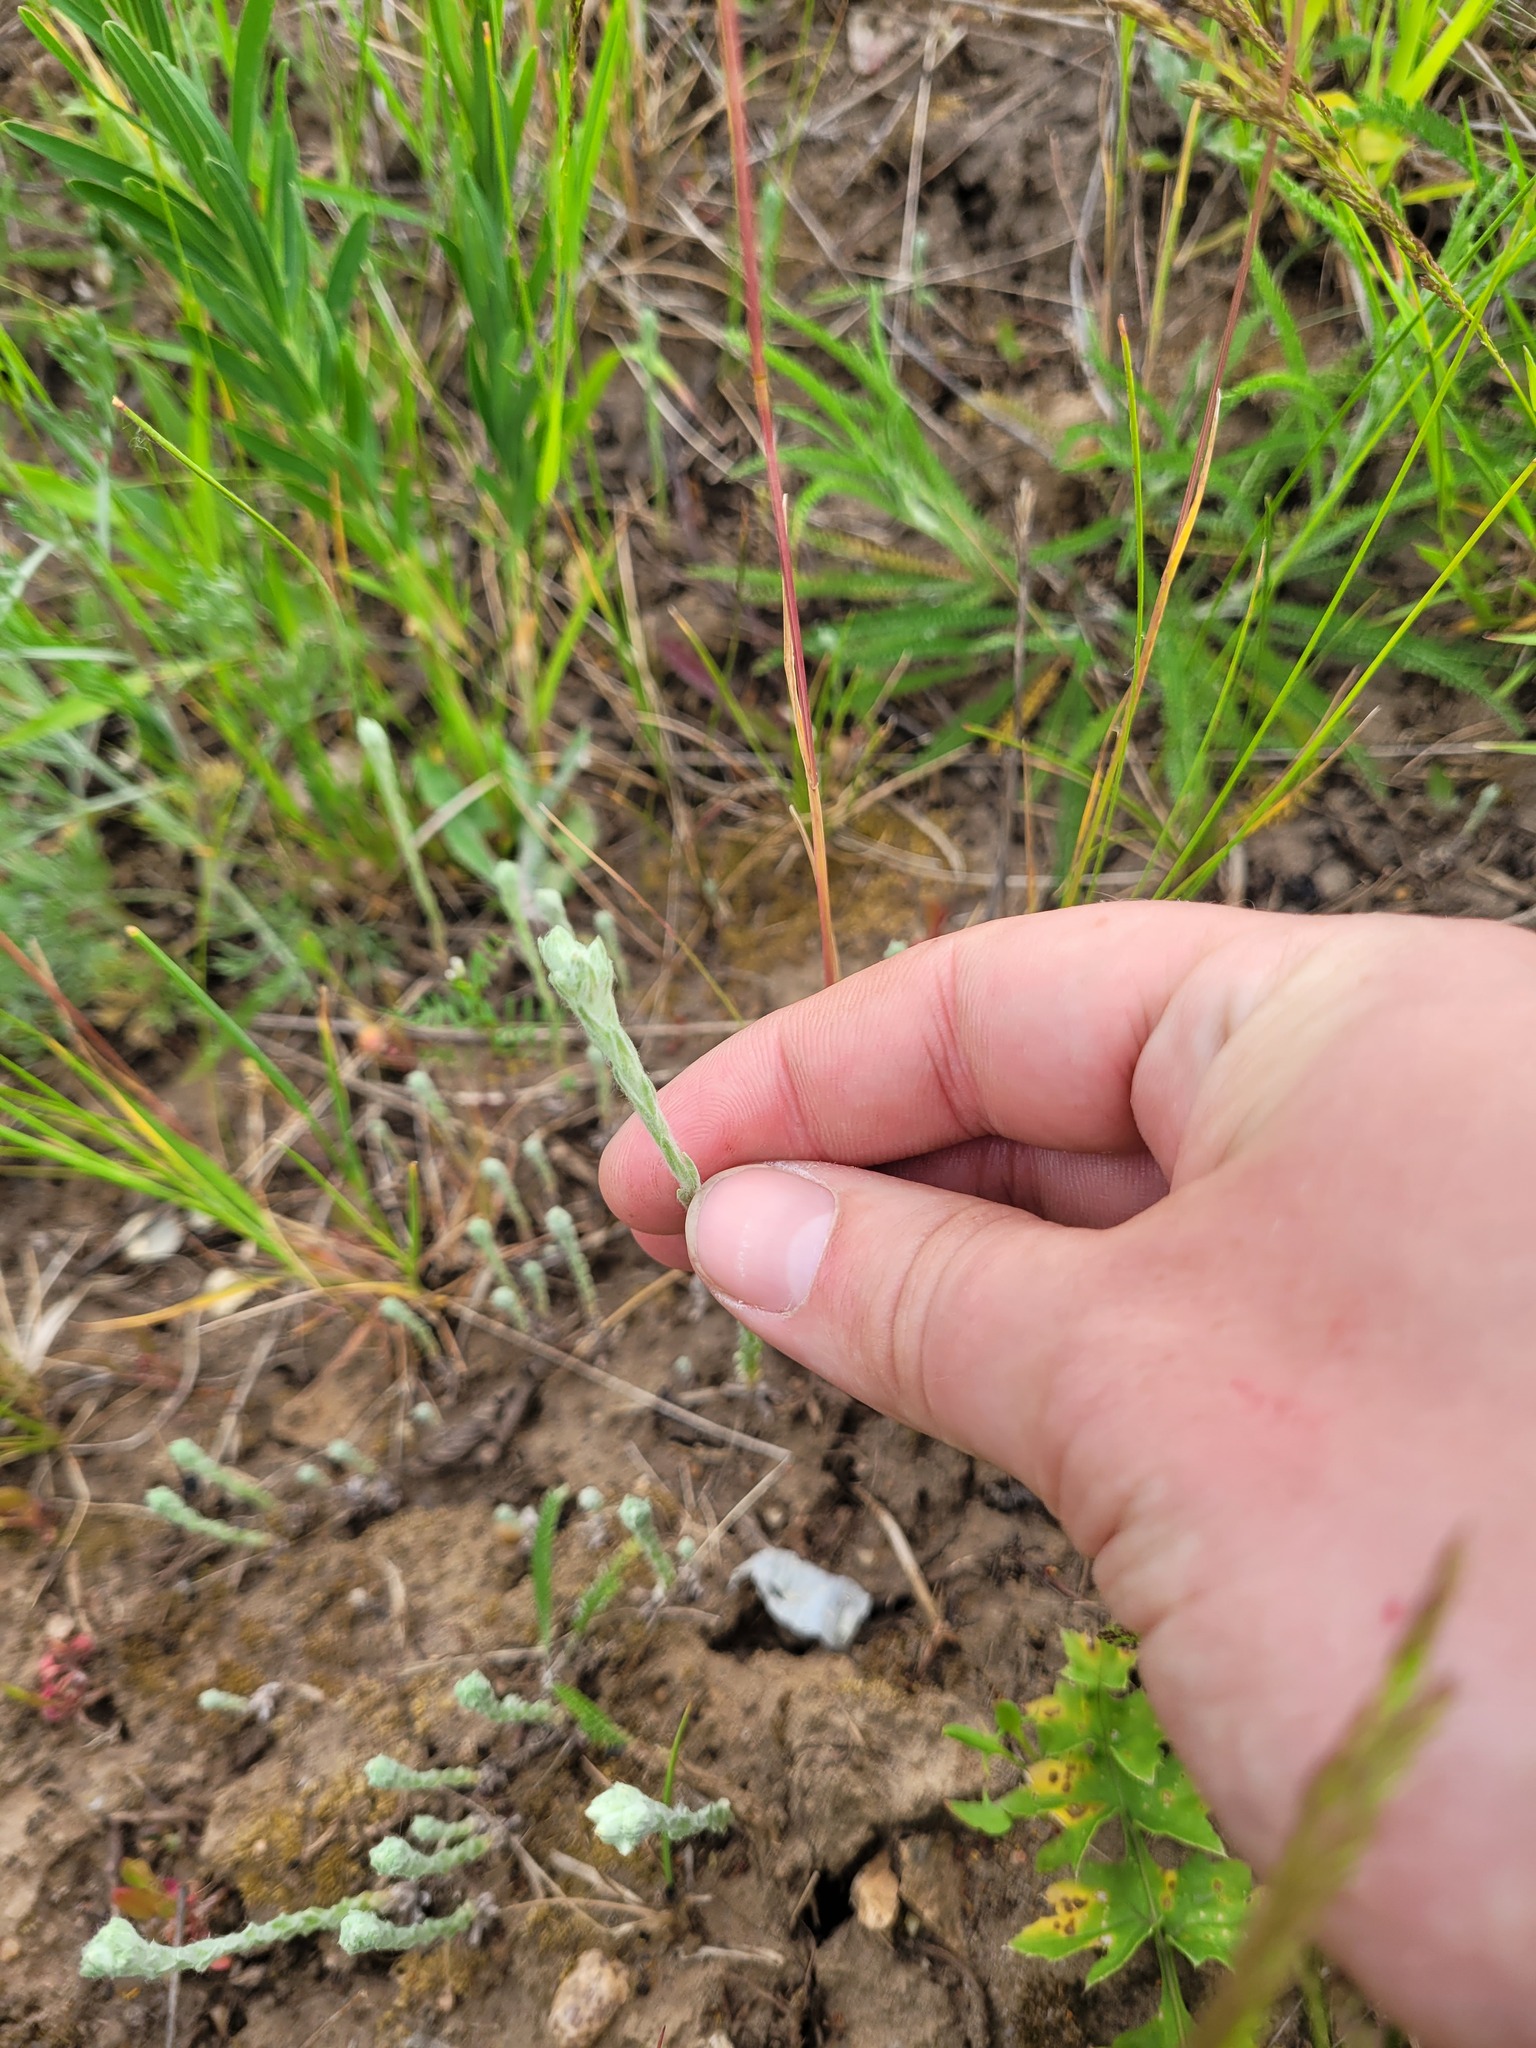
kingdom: Plantae
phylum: Tracheophyta
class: Magnoliopsida
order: Asterales
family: Asteraceae
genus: Filago
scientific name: Filago arvensis
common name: Field cudweed
